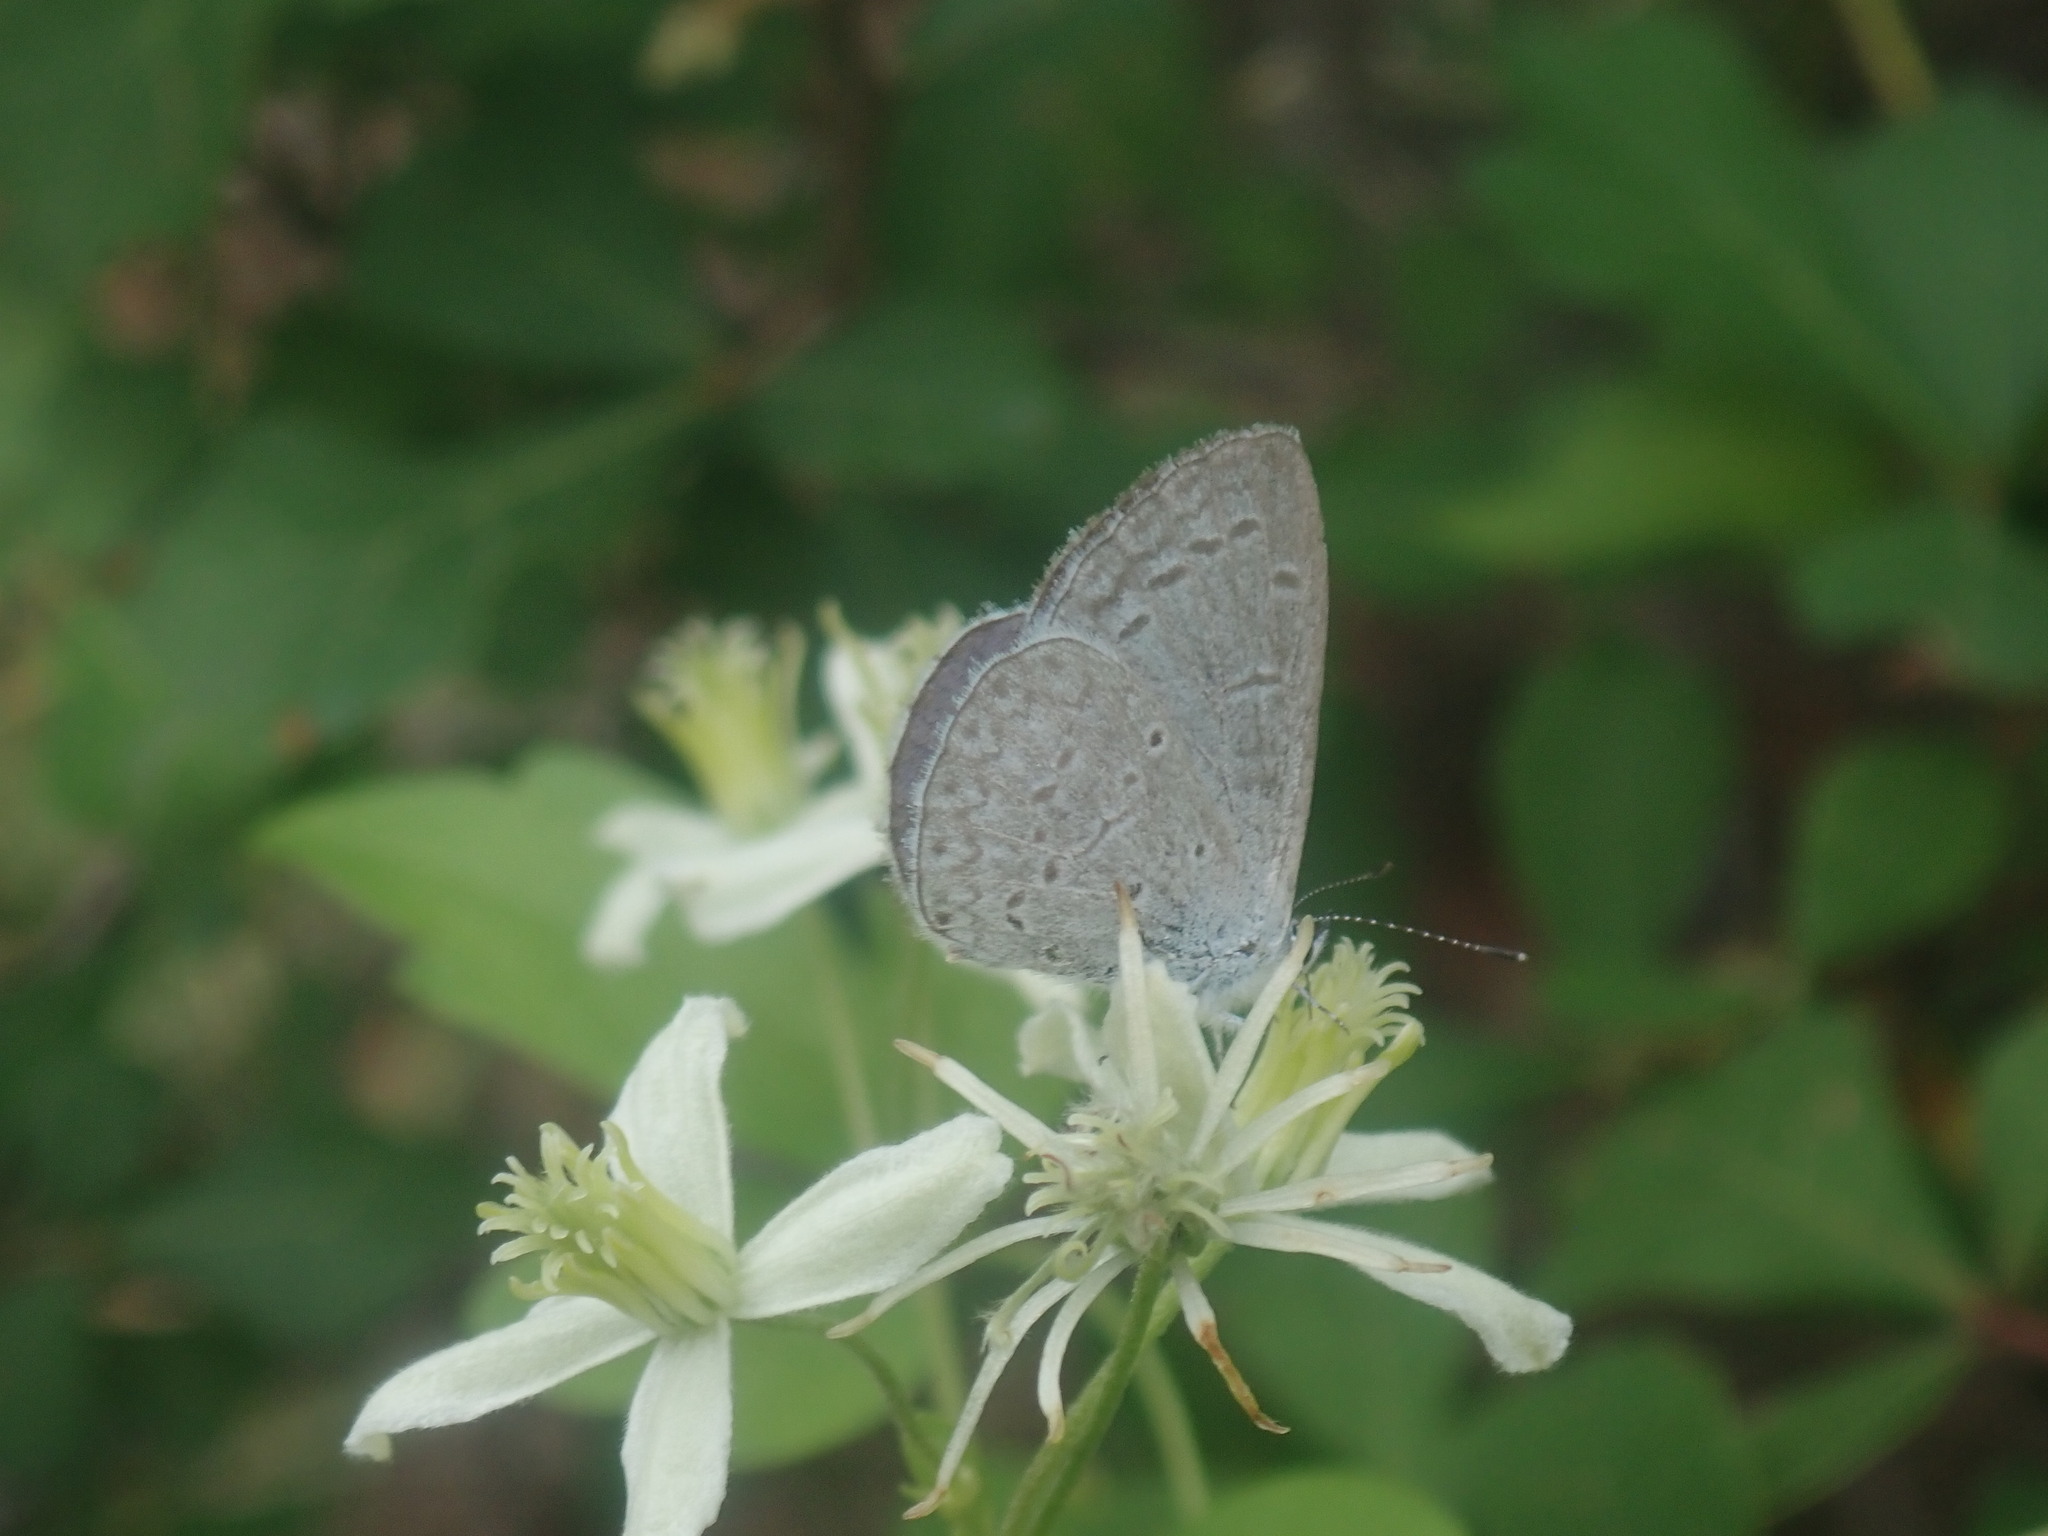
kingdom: Animalia
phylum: Arthropoda
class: Insecta
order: Lepidoptera
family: Lycaenidae
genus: Celastrina
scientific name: Celastrina ladon
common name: Spring azure
